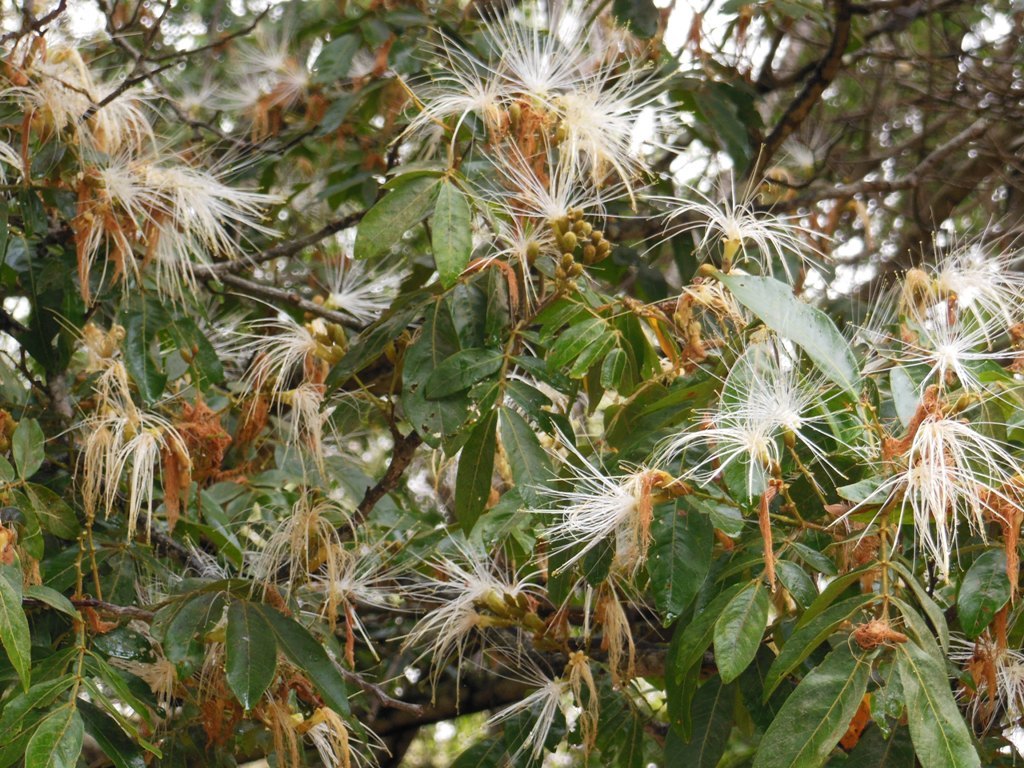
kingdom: Plantae
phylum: Tracheophyta
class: Magnoliopsida
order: Fabales
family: Fabaceae
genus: Inga
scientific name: Inga paterno
